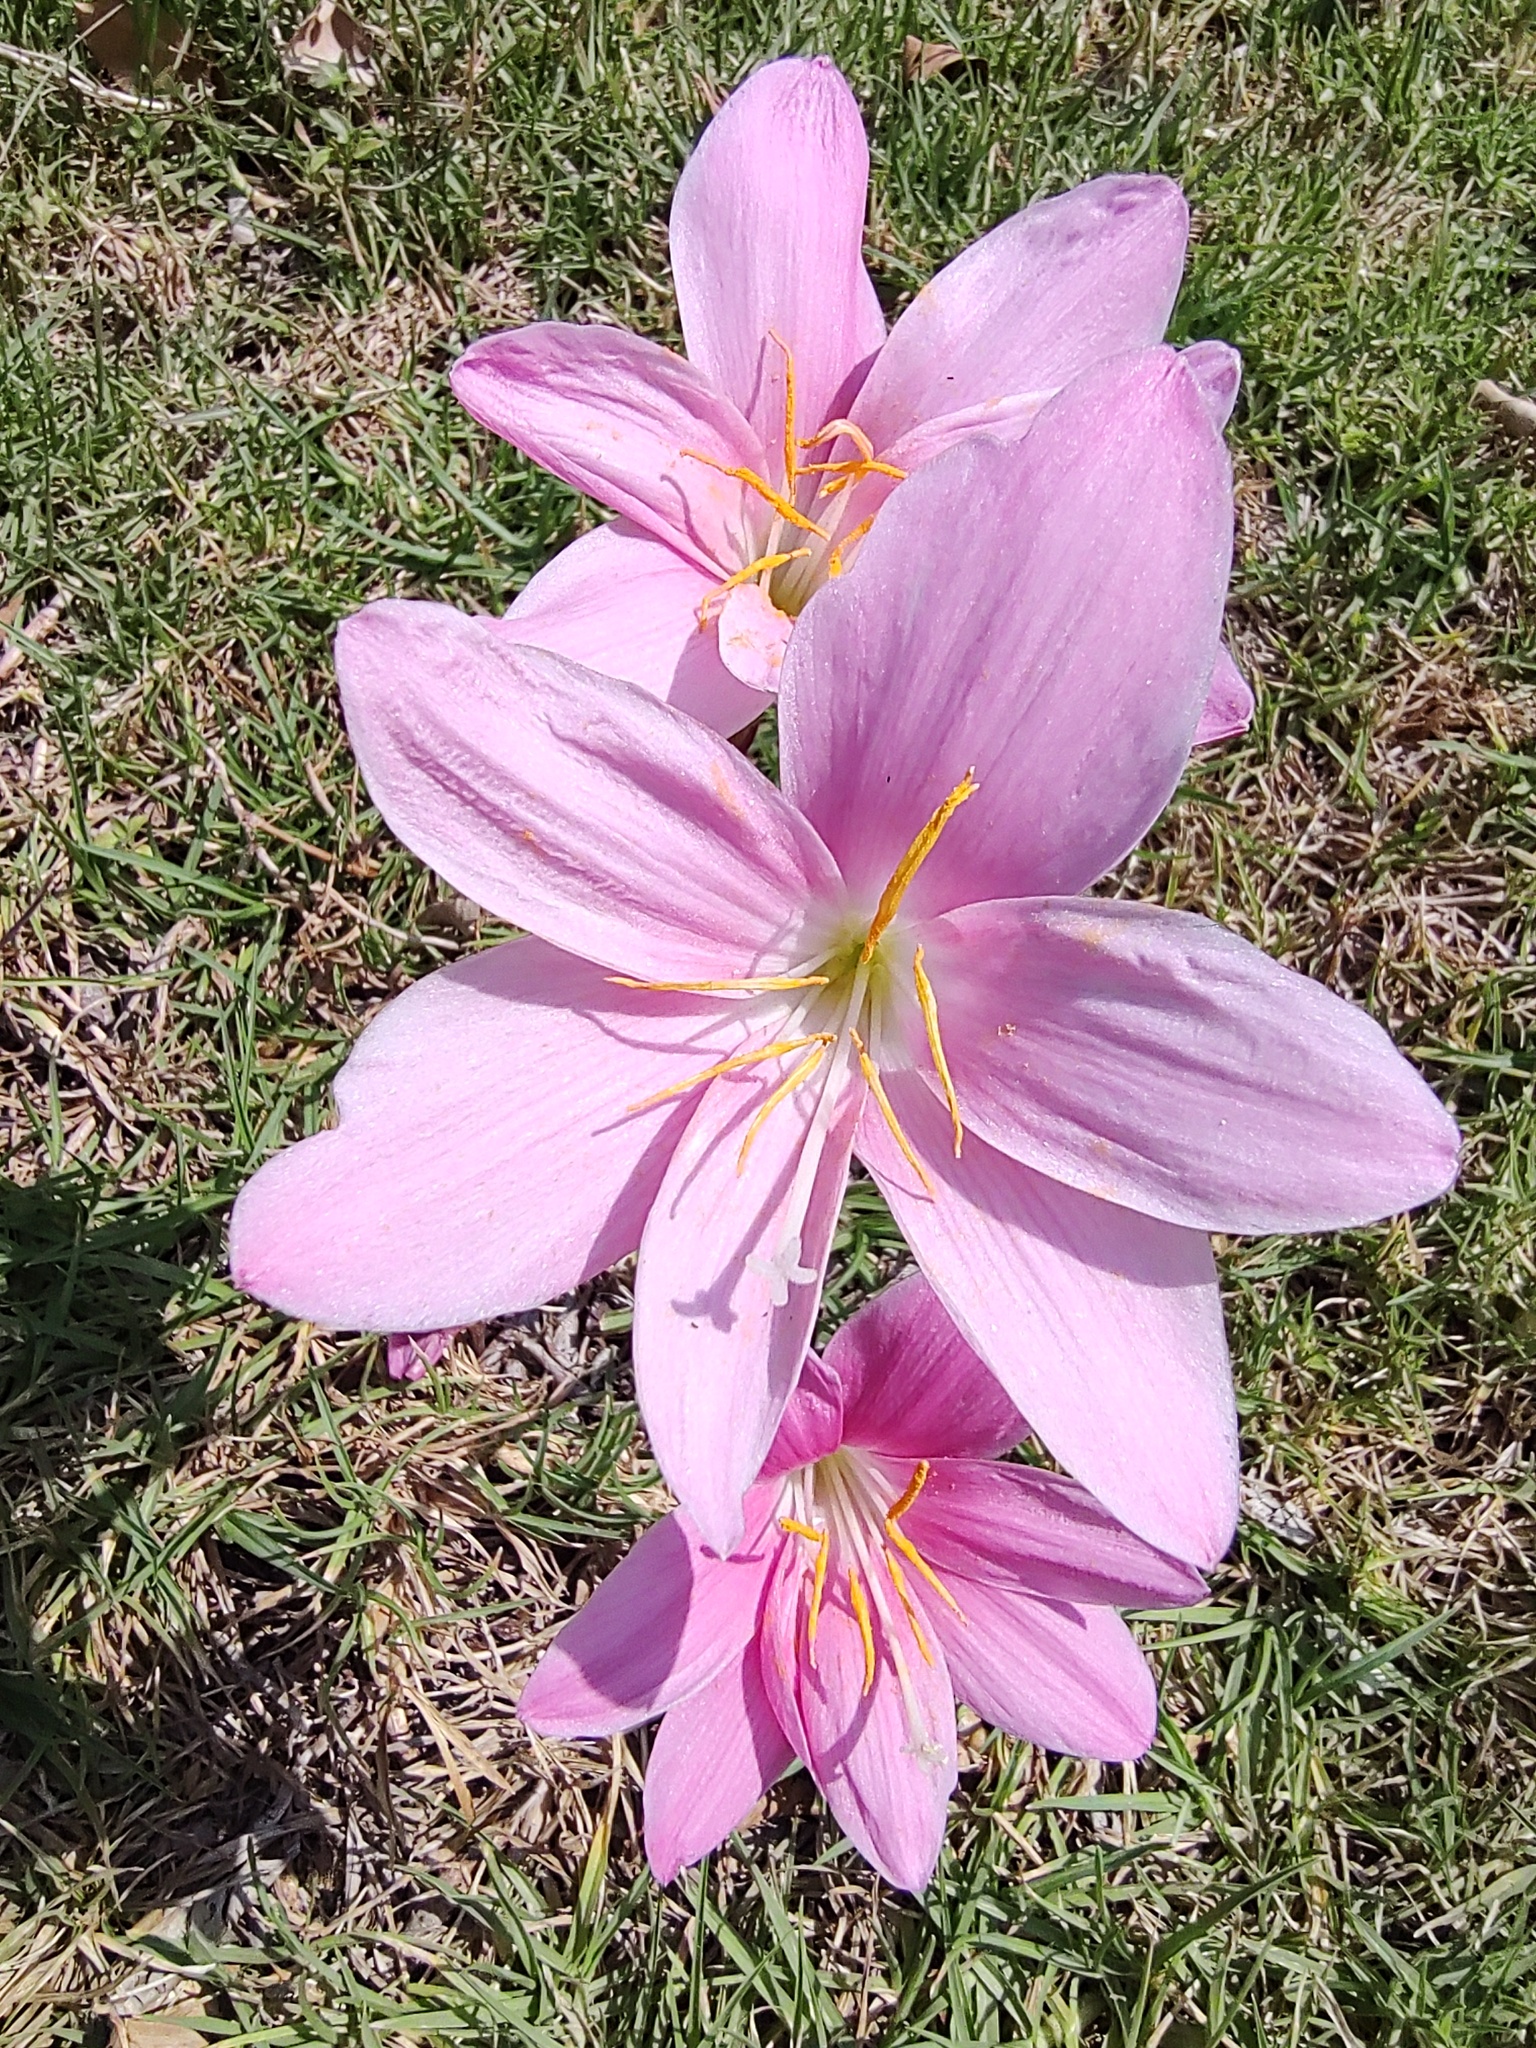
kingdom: Plantae
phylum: Tracheophyta
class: Liliopsida
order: Asparagales
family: Amaryllidaceae
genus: Zephyranthes
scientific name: Zephyranthes carinata
